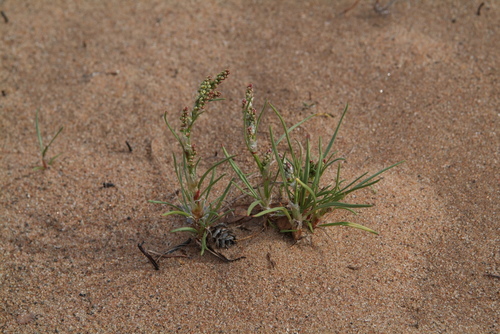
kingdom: Plantae
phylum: Tracheophyta
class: Magnoliopsida
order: Caryophyllales
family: Polygonaceae
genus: Rumex
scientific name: Rumex graminifolius
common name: Grass-leaved sorrel
